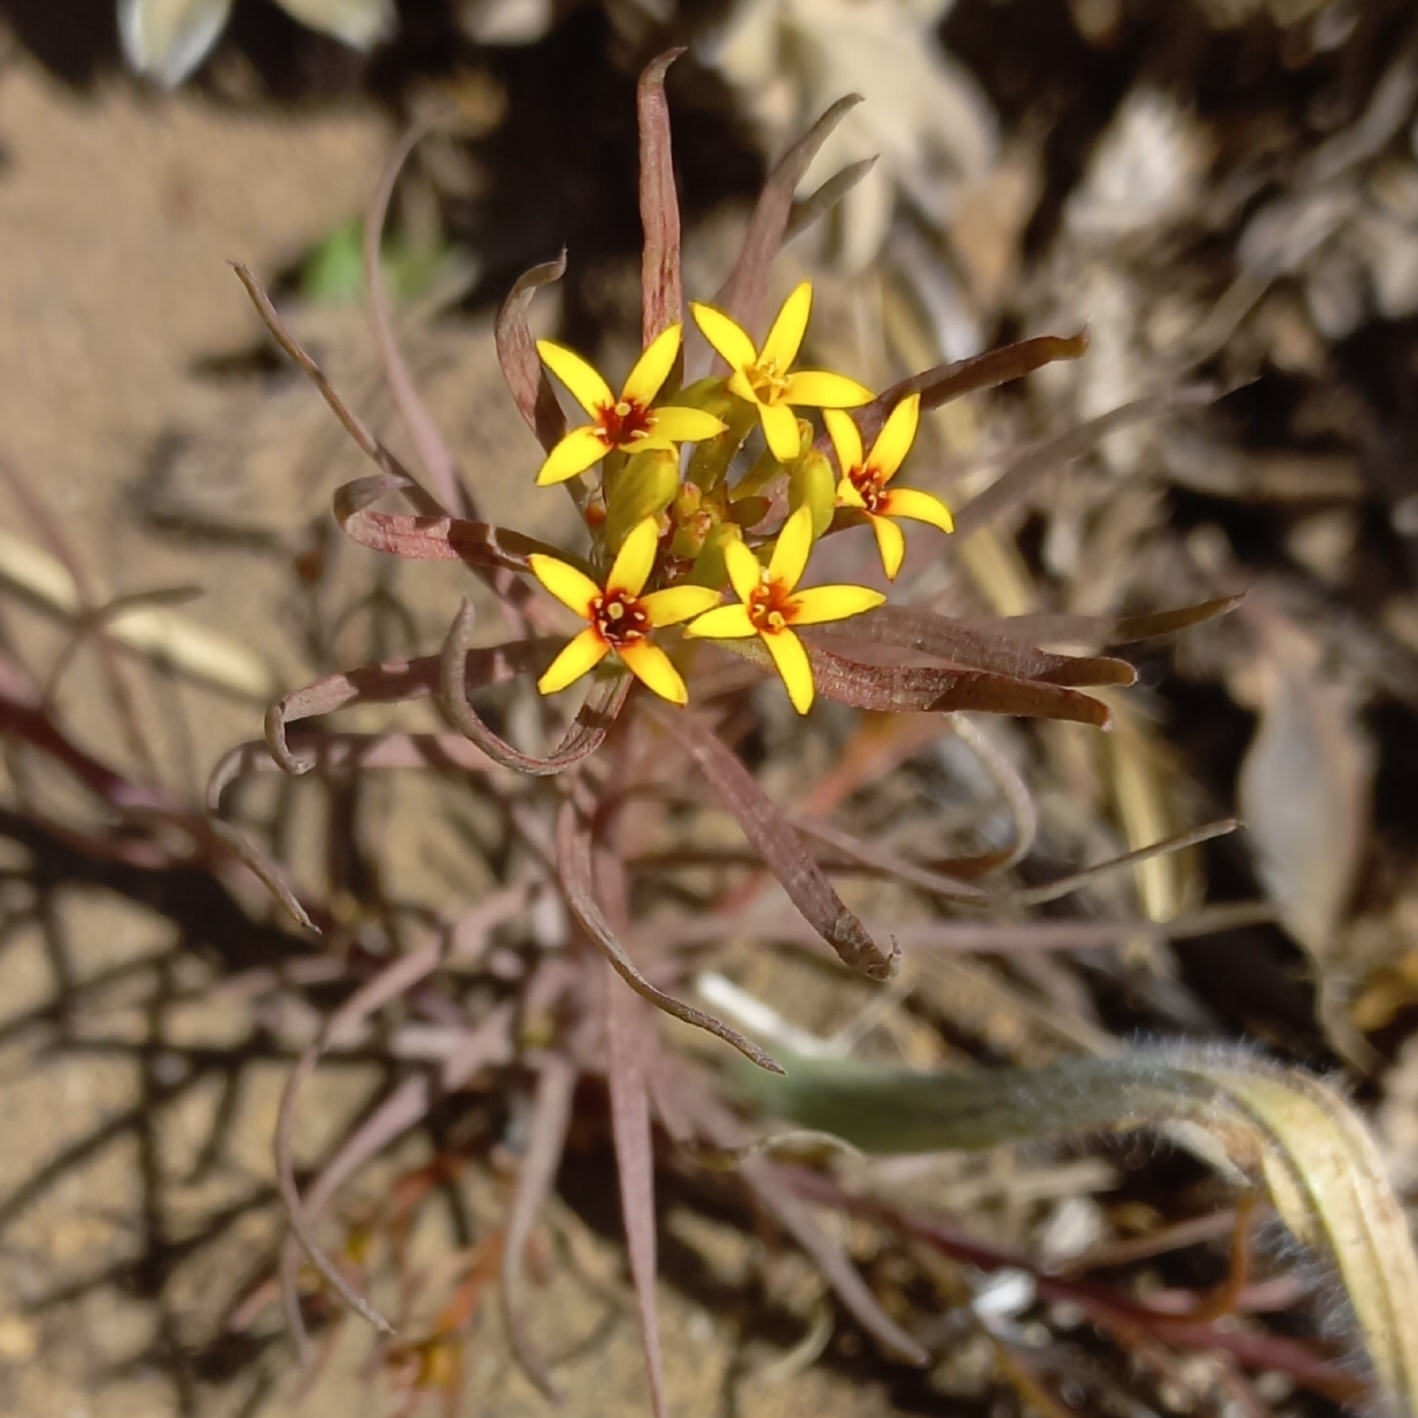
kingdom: Plantae
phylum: Tracheophyta
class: Magnoliopsida
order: Santalales
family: Schoepfiaceae
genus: Quinchamalium
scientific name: Quinchamalium chilense
